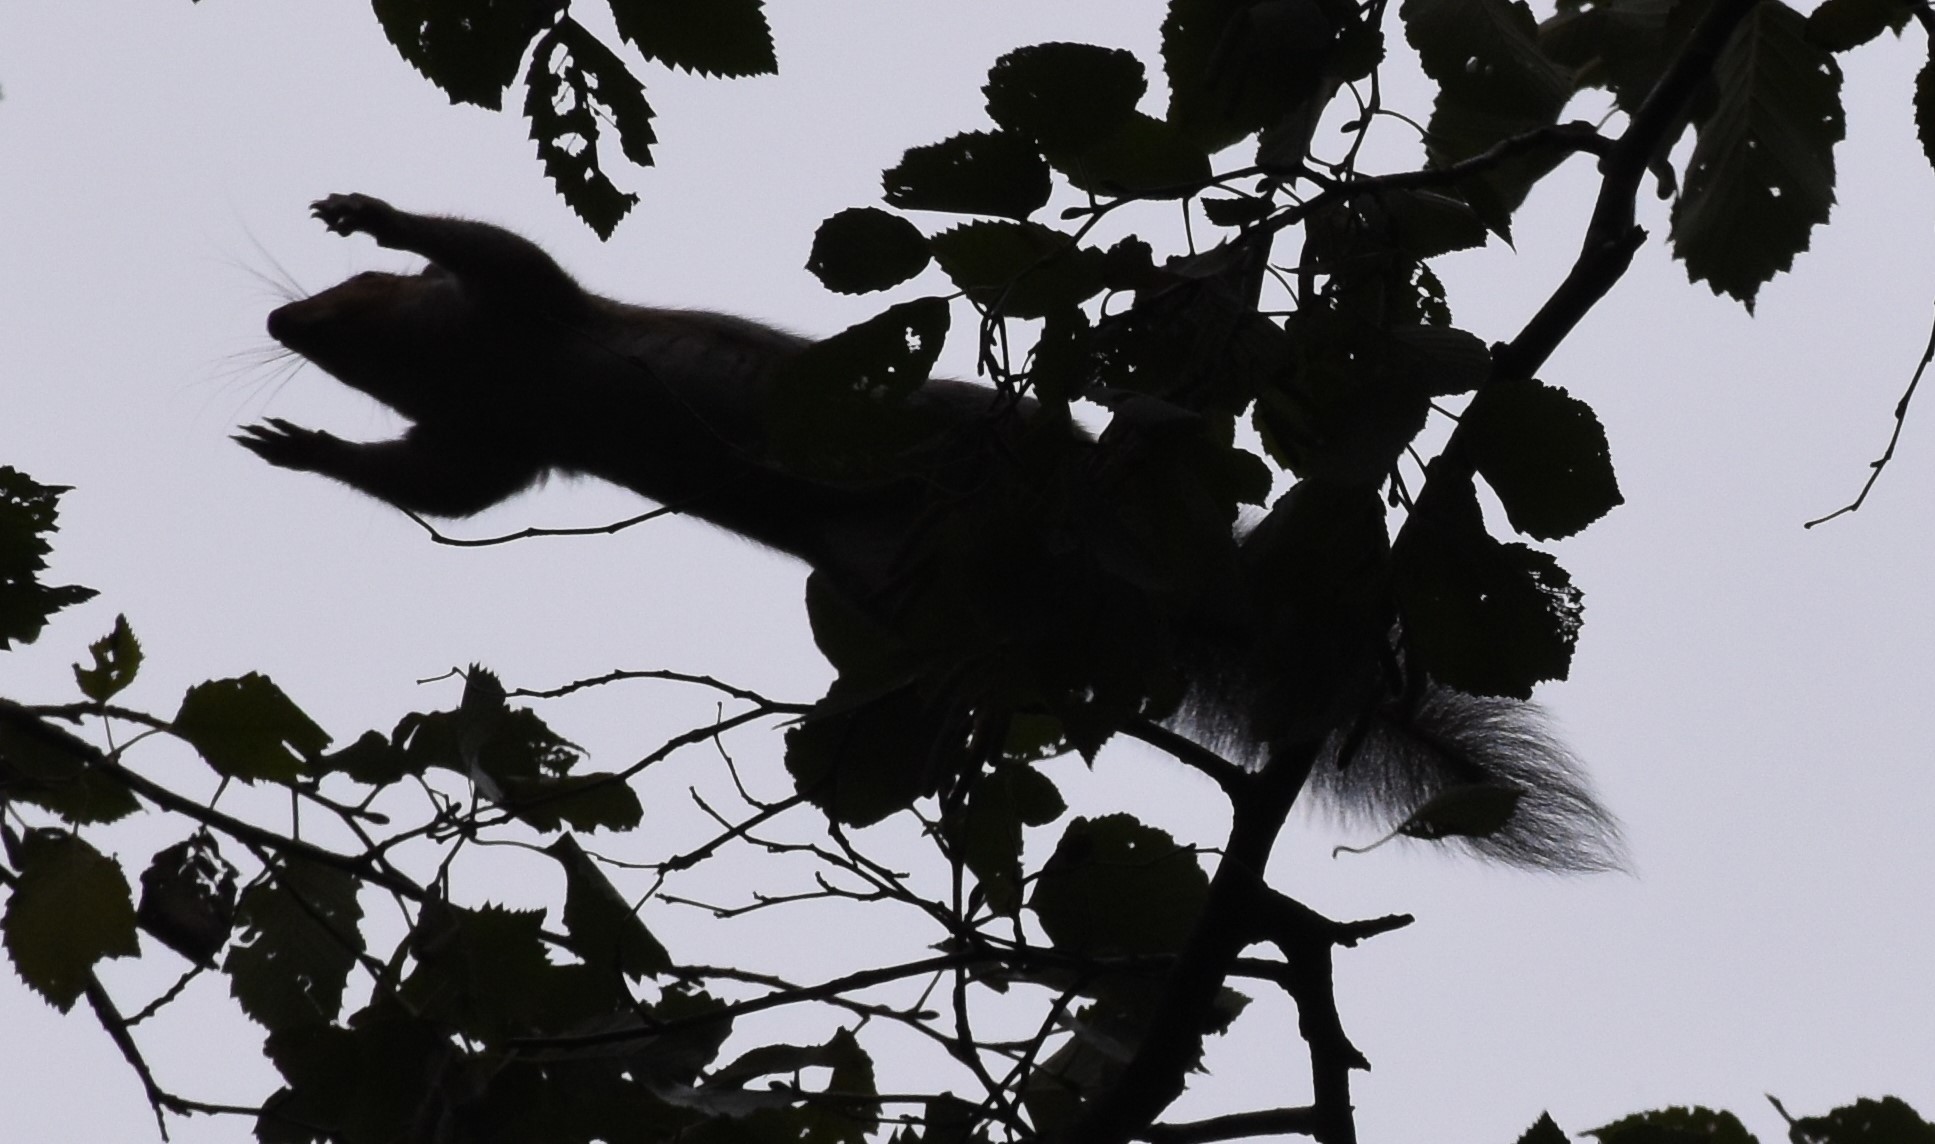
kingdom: Animalia
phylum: Chordata
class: Mammalia
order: Rodentia
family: Sciuridae
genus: Sciurus
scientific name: Sciurus carolinensis
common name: Eastern gray squirrel
